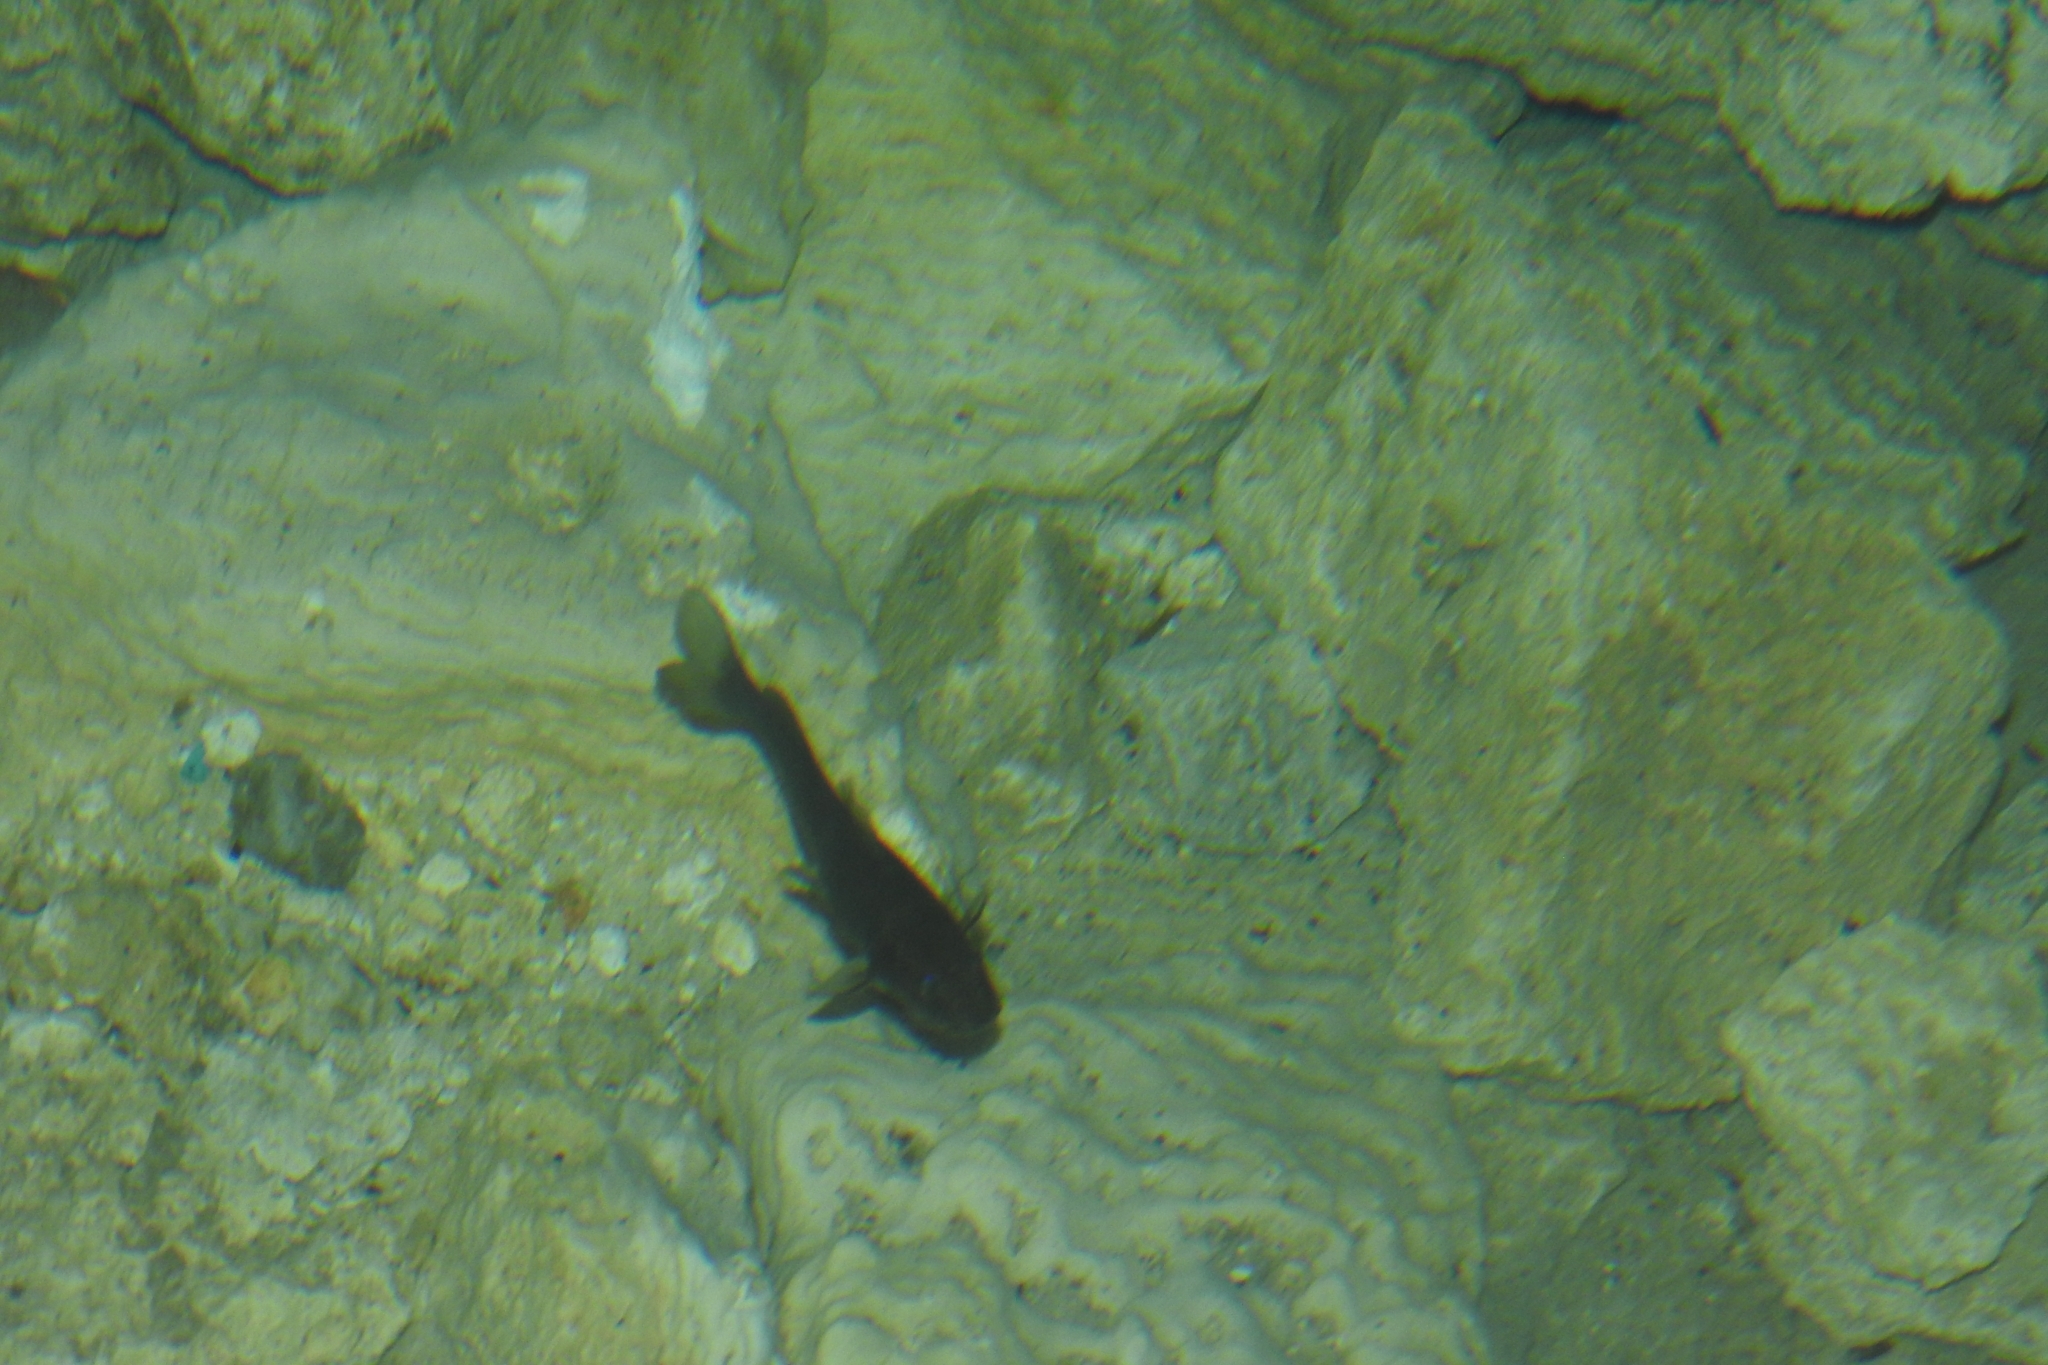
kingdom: Animalia
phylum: Chordata
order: Siluriformes
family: Heptapteridae
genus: Rhamdia
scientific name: Rhamdia guatemalensis
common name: Pale catfish
